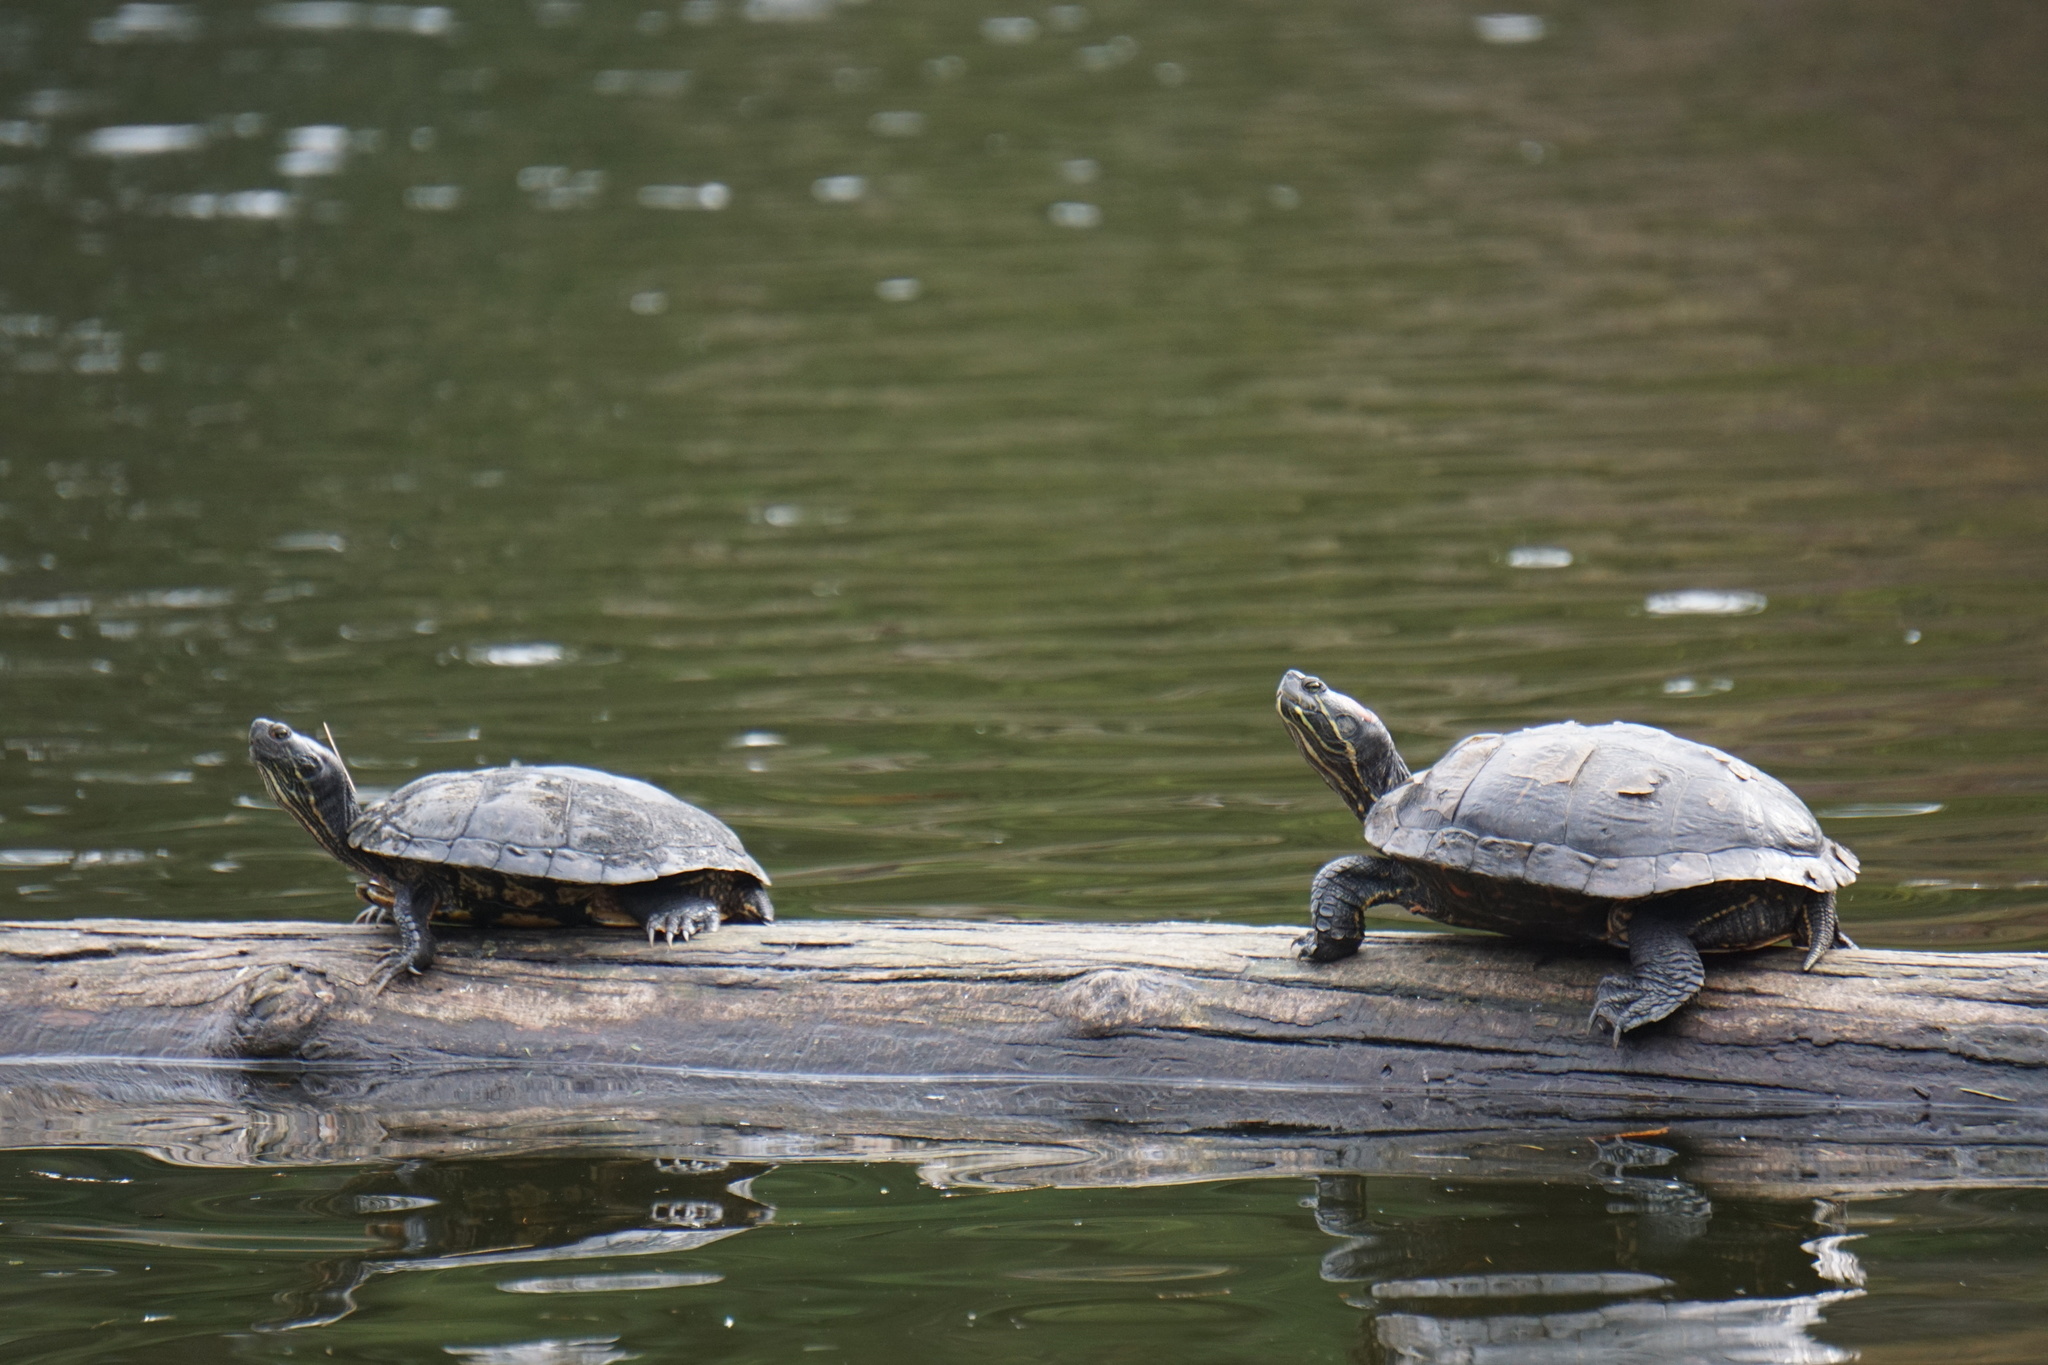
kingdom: Animalia
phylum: Chordata
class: Testudines
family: Emydidae
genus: Trachemys
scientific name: Trachemys scripta
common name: Slider
